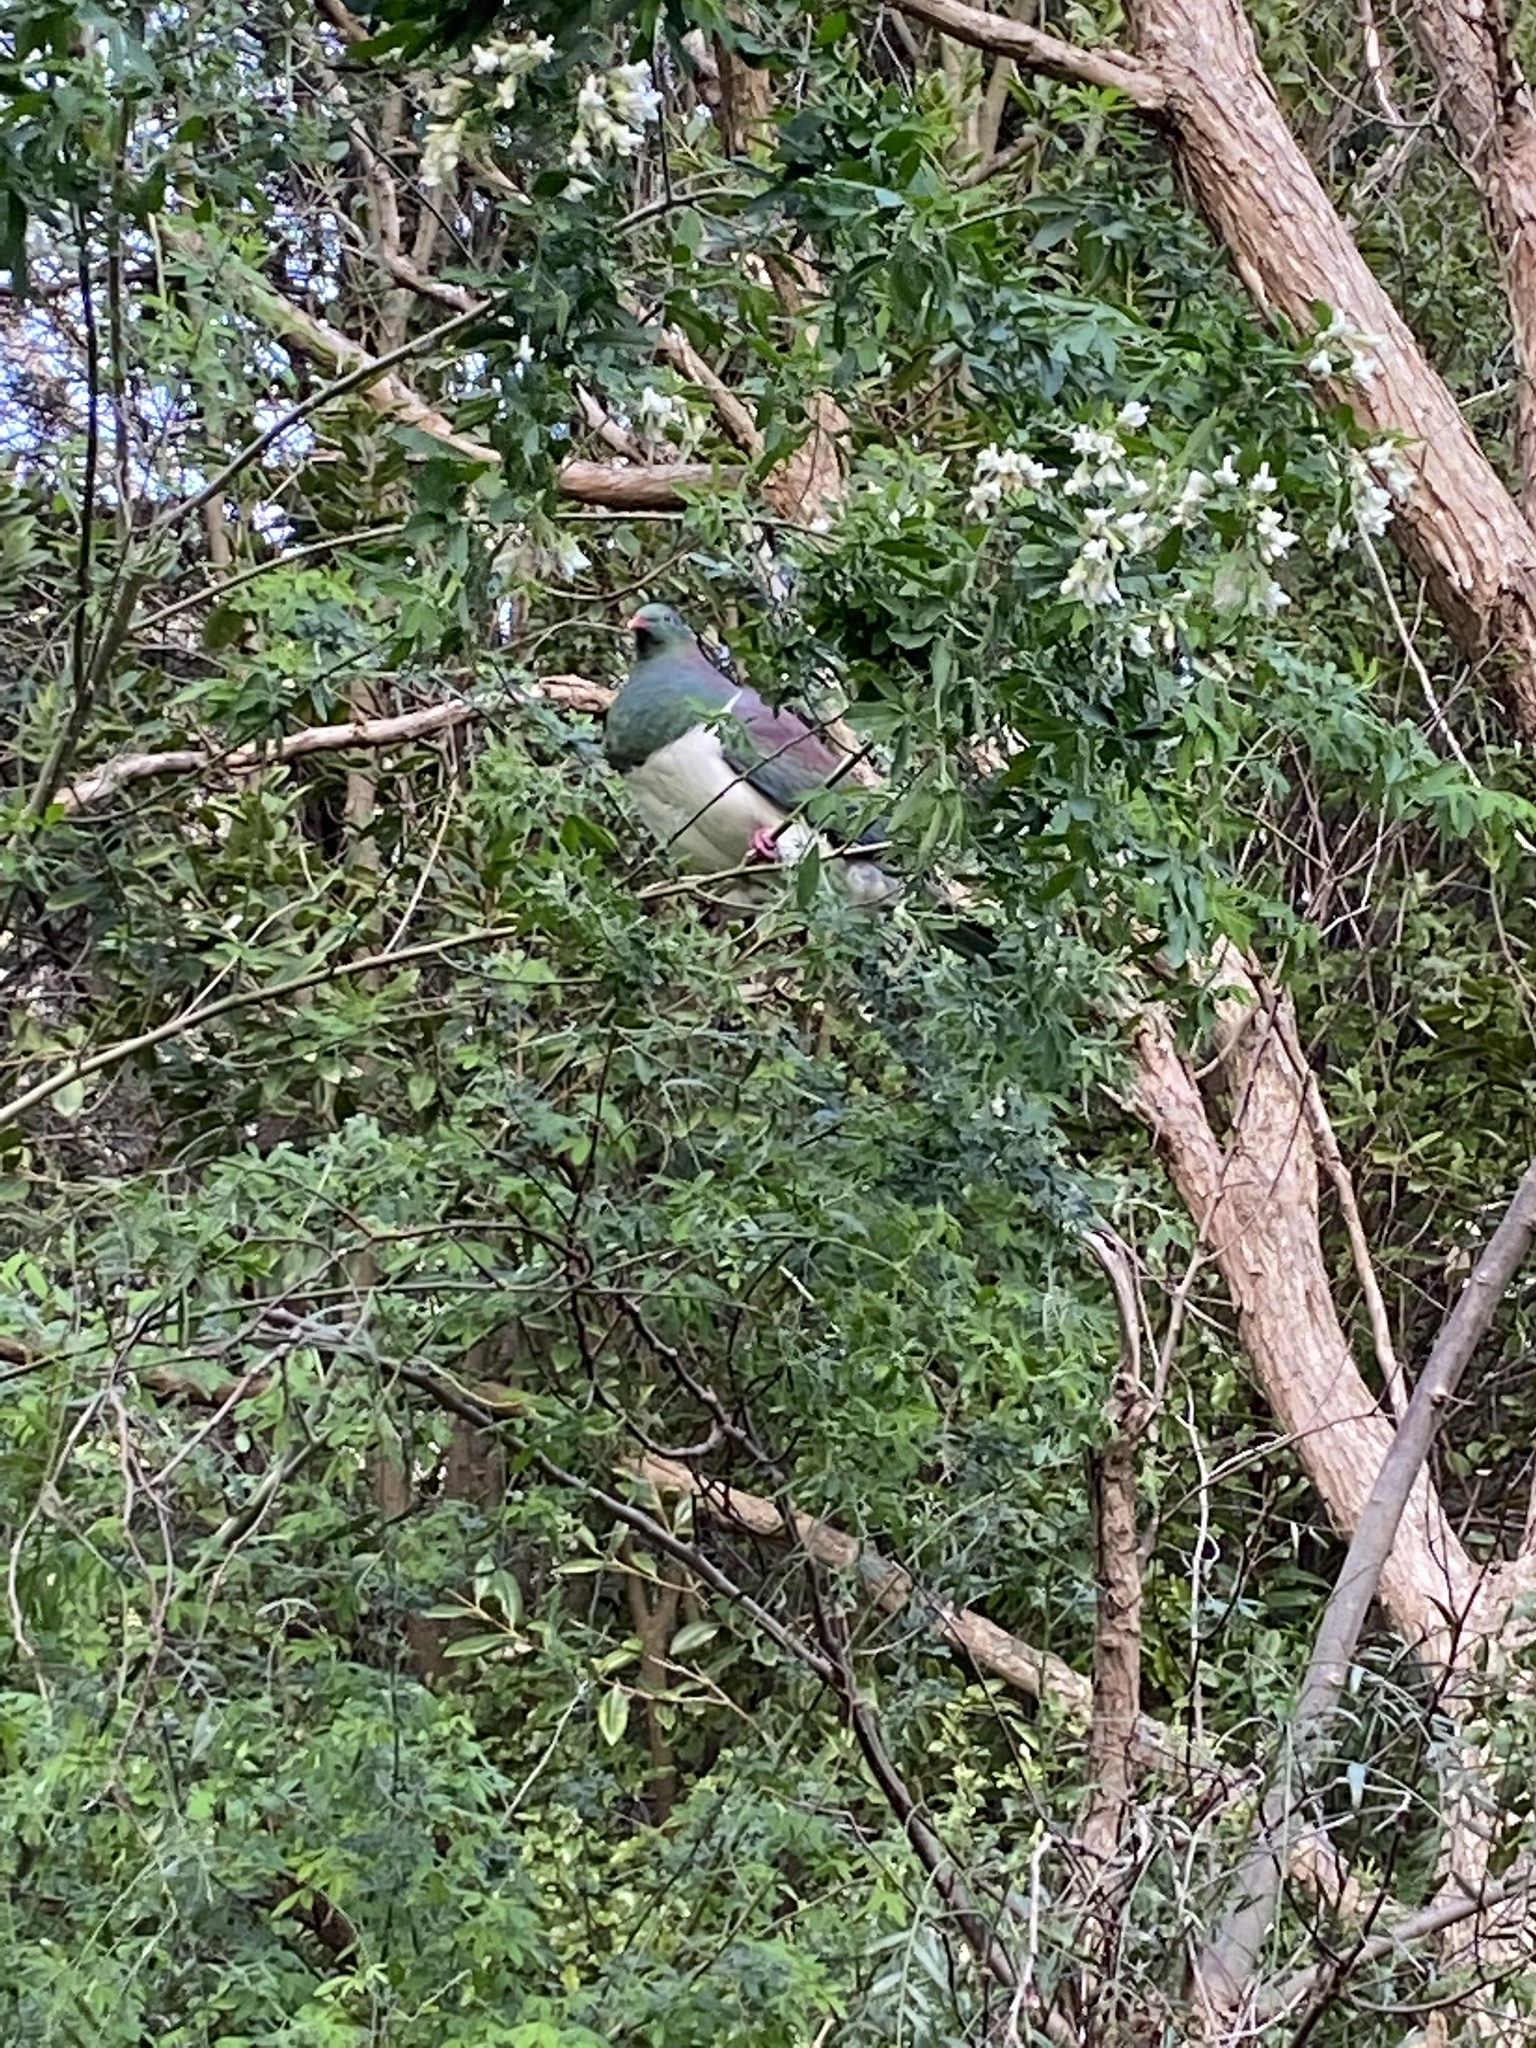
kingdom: Animalia
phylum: Chordata
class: Aves
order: Columbiformes
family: Columbidae
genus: Hemiphaga
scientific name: Hemiphaga novaeseelandiae
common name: New zealand pigeon
